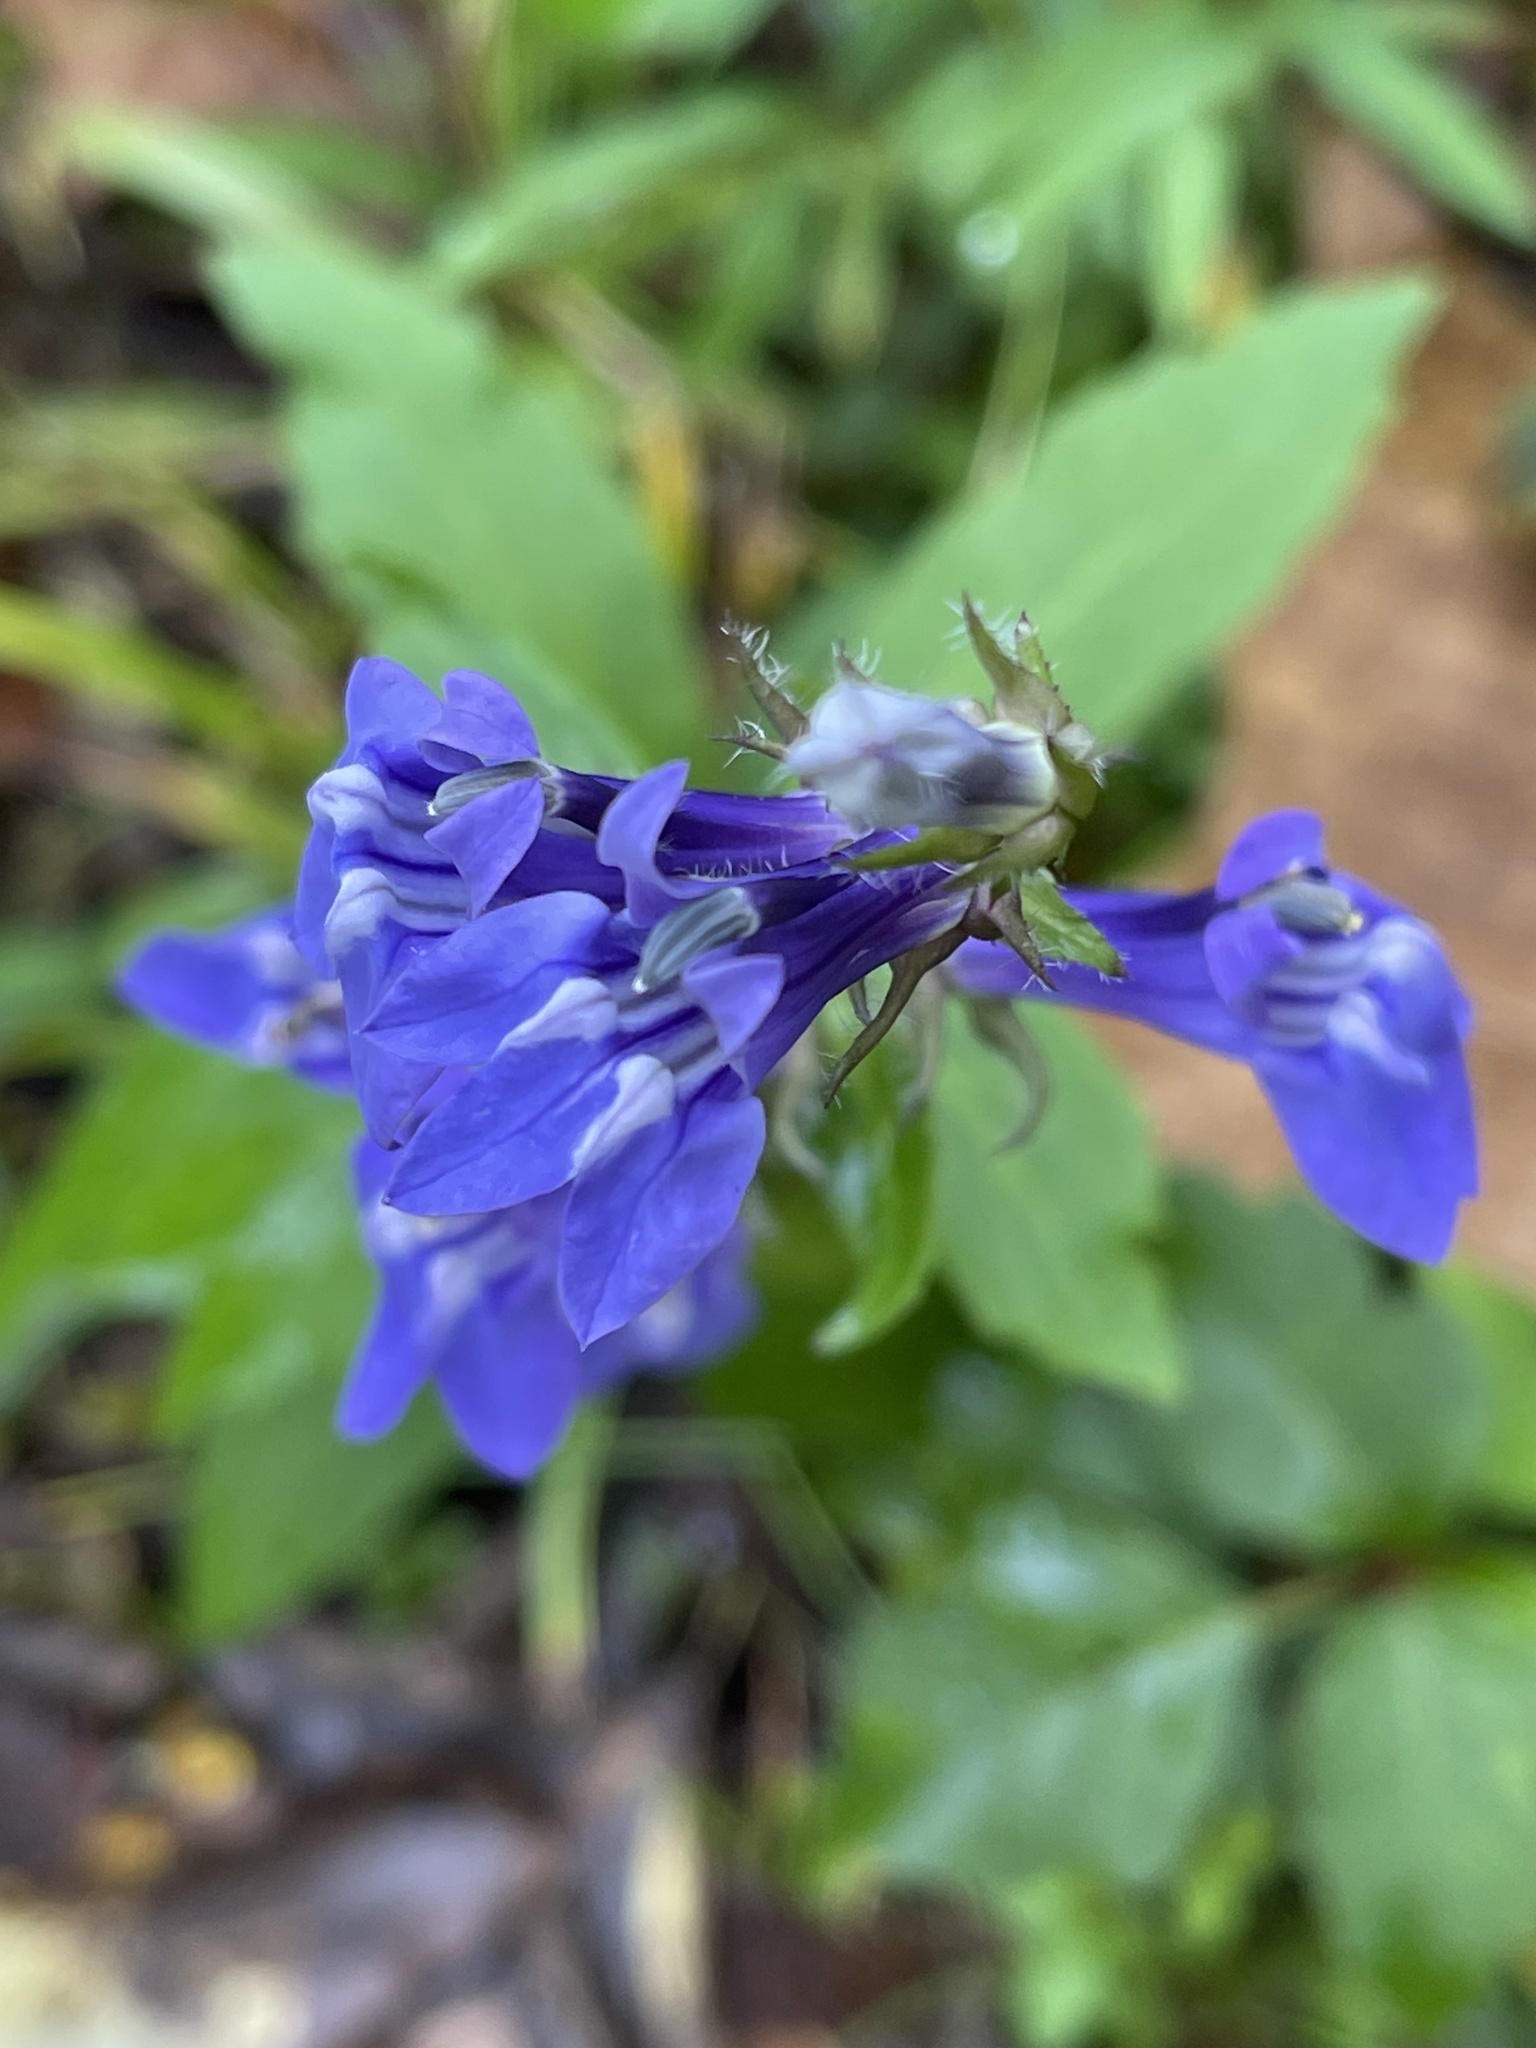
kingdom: Plantae
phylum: Tracheophyta
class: Magnoliopsida
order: Asterales
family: Campanulaceae
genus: Lobelia
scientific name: Lobelia siphilitica
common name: Great lobelia
